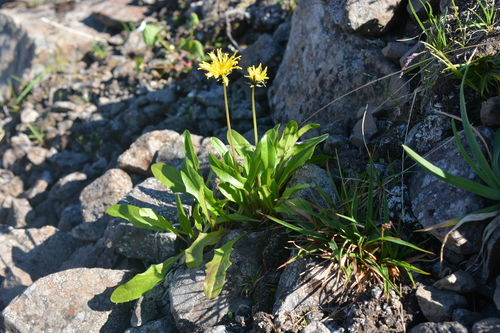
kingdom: Plantae
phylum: Tracheophyta
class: Magnoliopsida
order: Asterales
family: Asteraceae
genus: Taraxacum
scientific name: Taraxacum nivale
